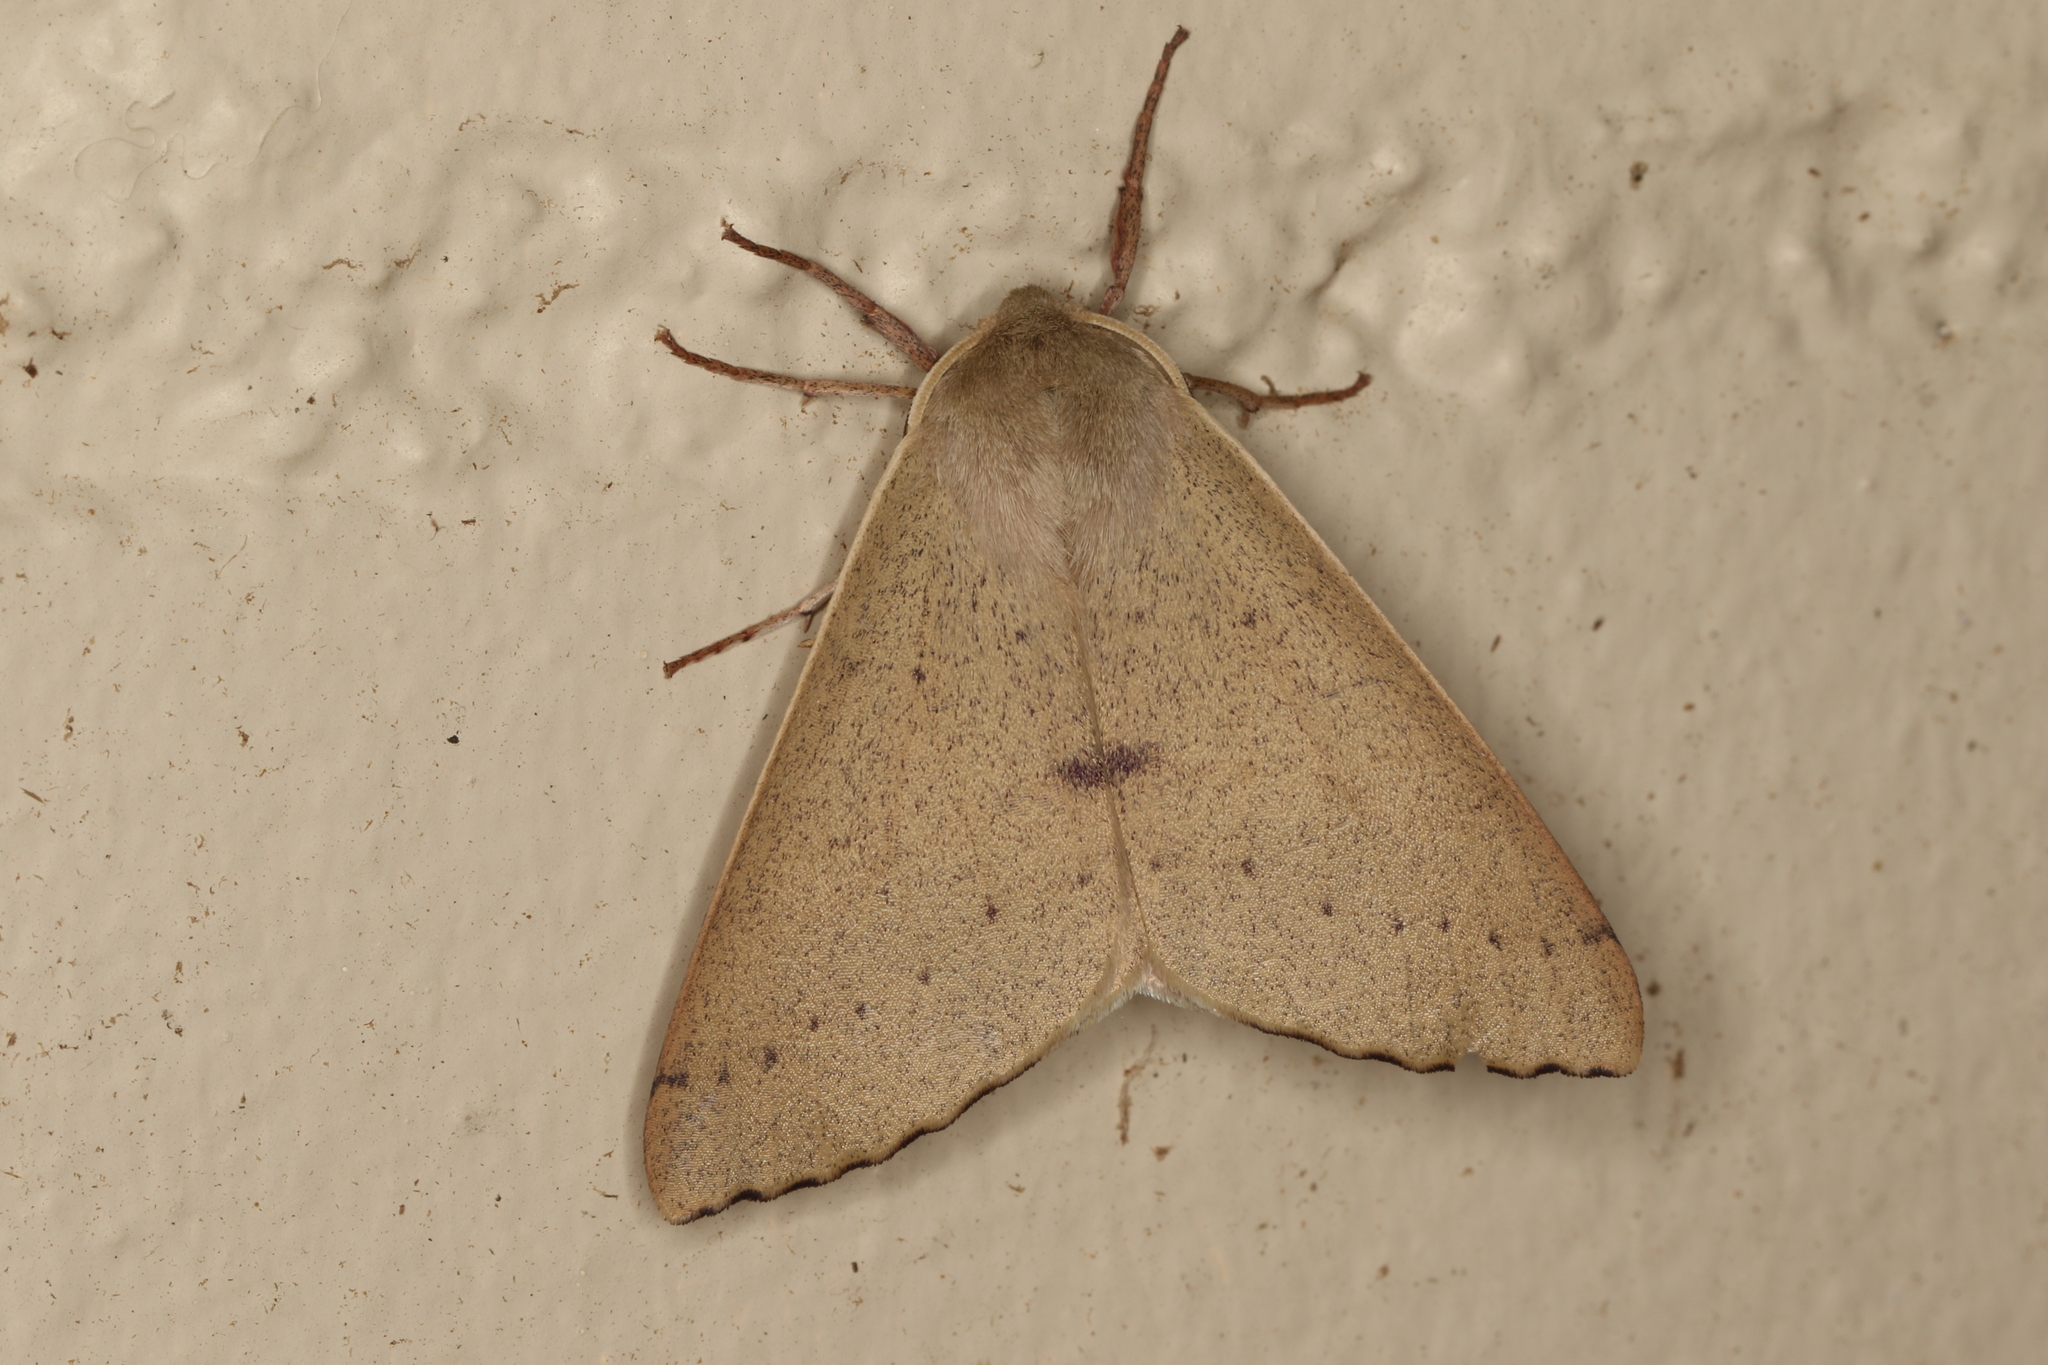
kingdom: Animalia
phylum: Arthropoda
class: Insecta
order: Lepidoptera
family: Geometridae
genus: Arhodia
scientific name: Arhodia lasiocamparia
